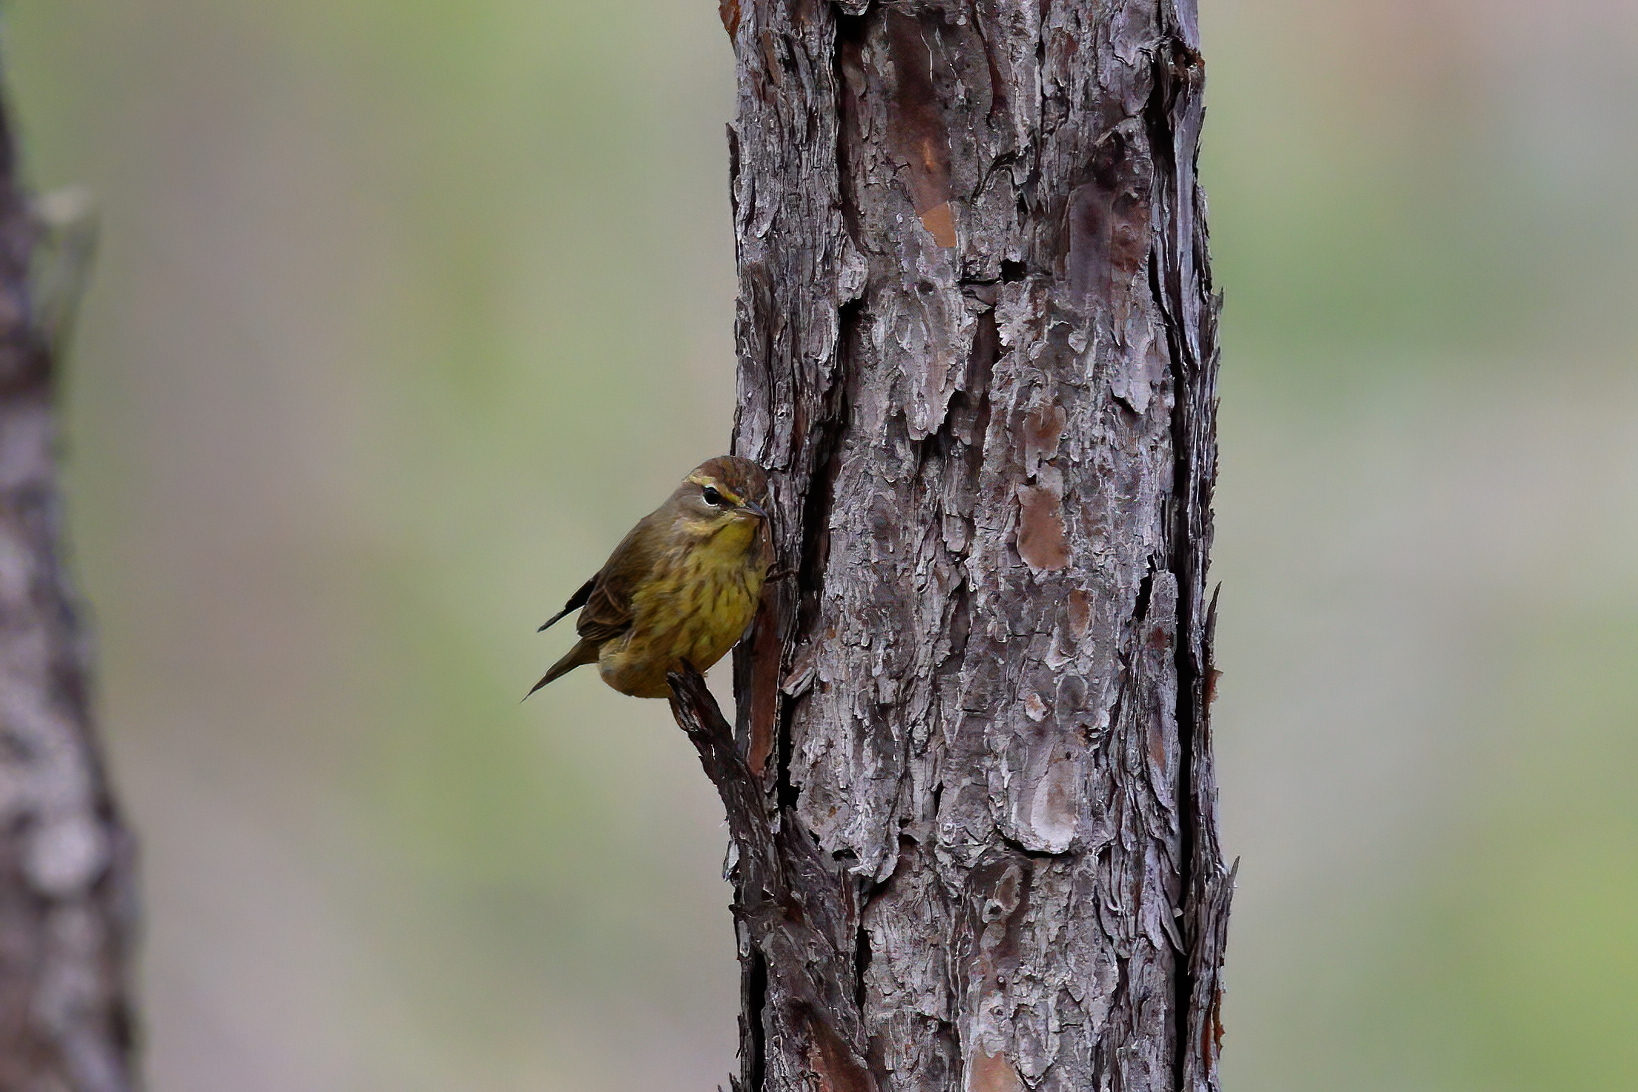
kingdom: Animalia
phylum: Chordata
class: Aves
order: Passeriformes
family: Parulidae
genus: Setophaga
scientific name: Setophaga palmarum
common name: Palm warbler
